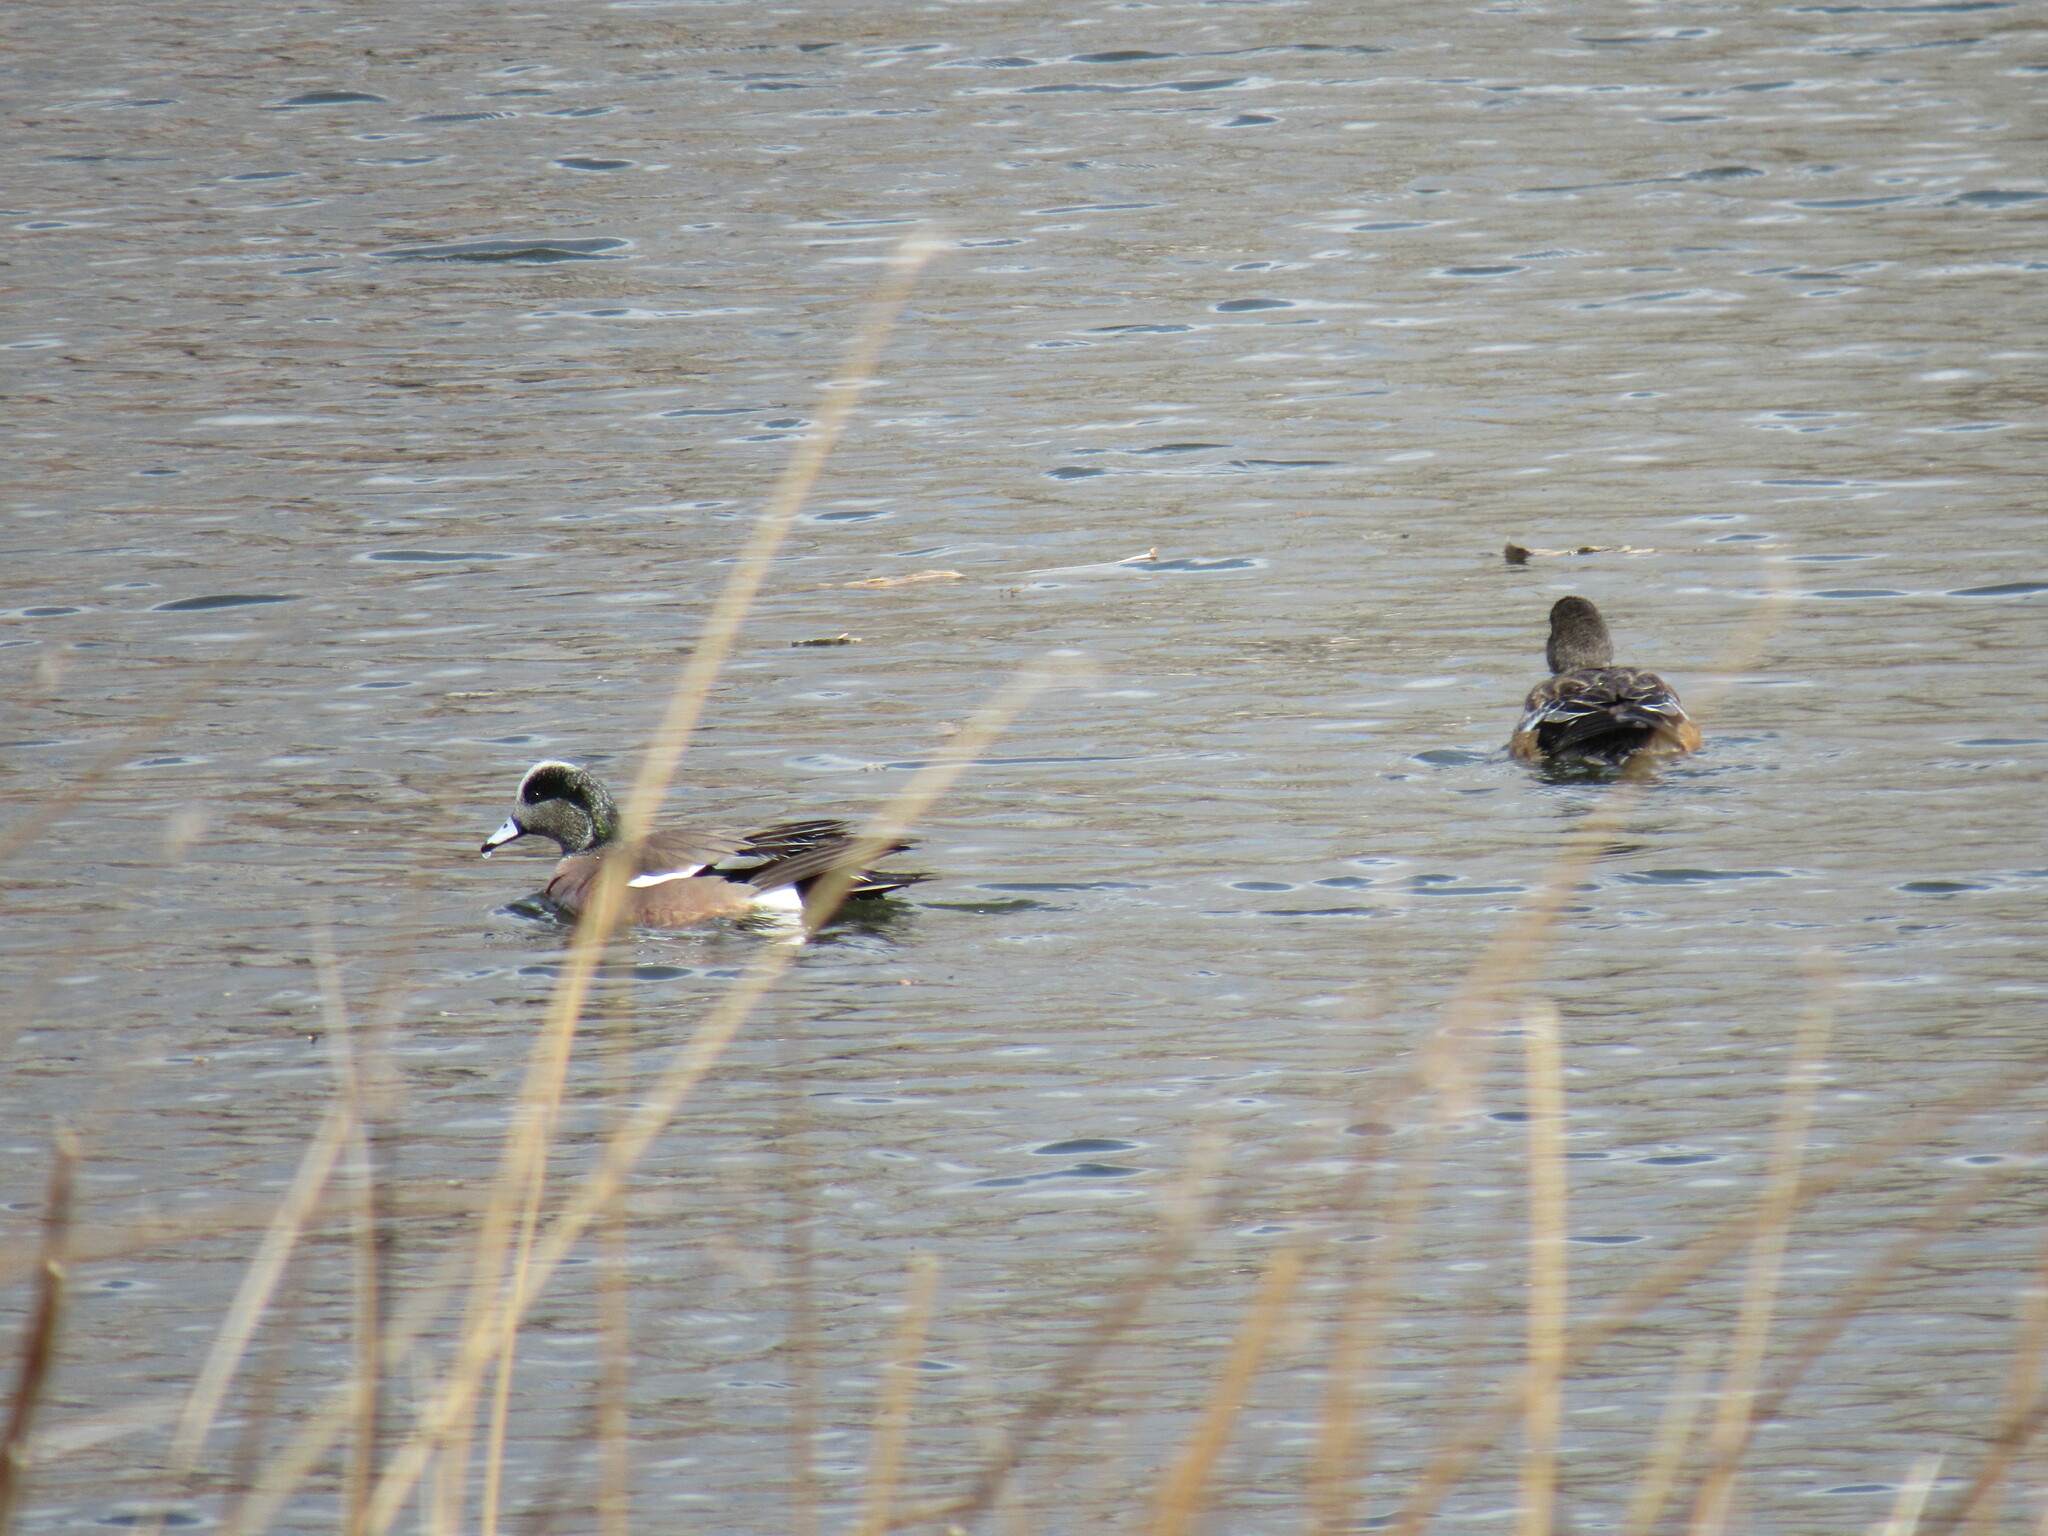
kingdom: Animalia
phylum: Chordata
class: Aves
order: Anseriformes
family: Anatidae
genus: Mareca
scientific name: Mareca americana
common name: American wigeon
